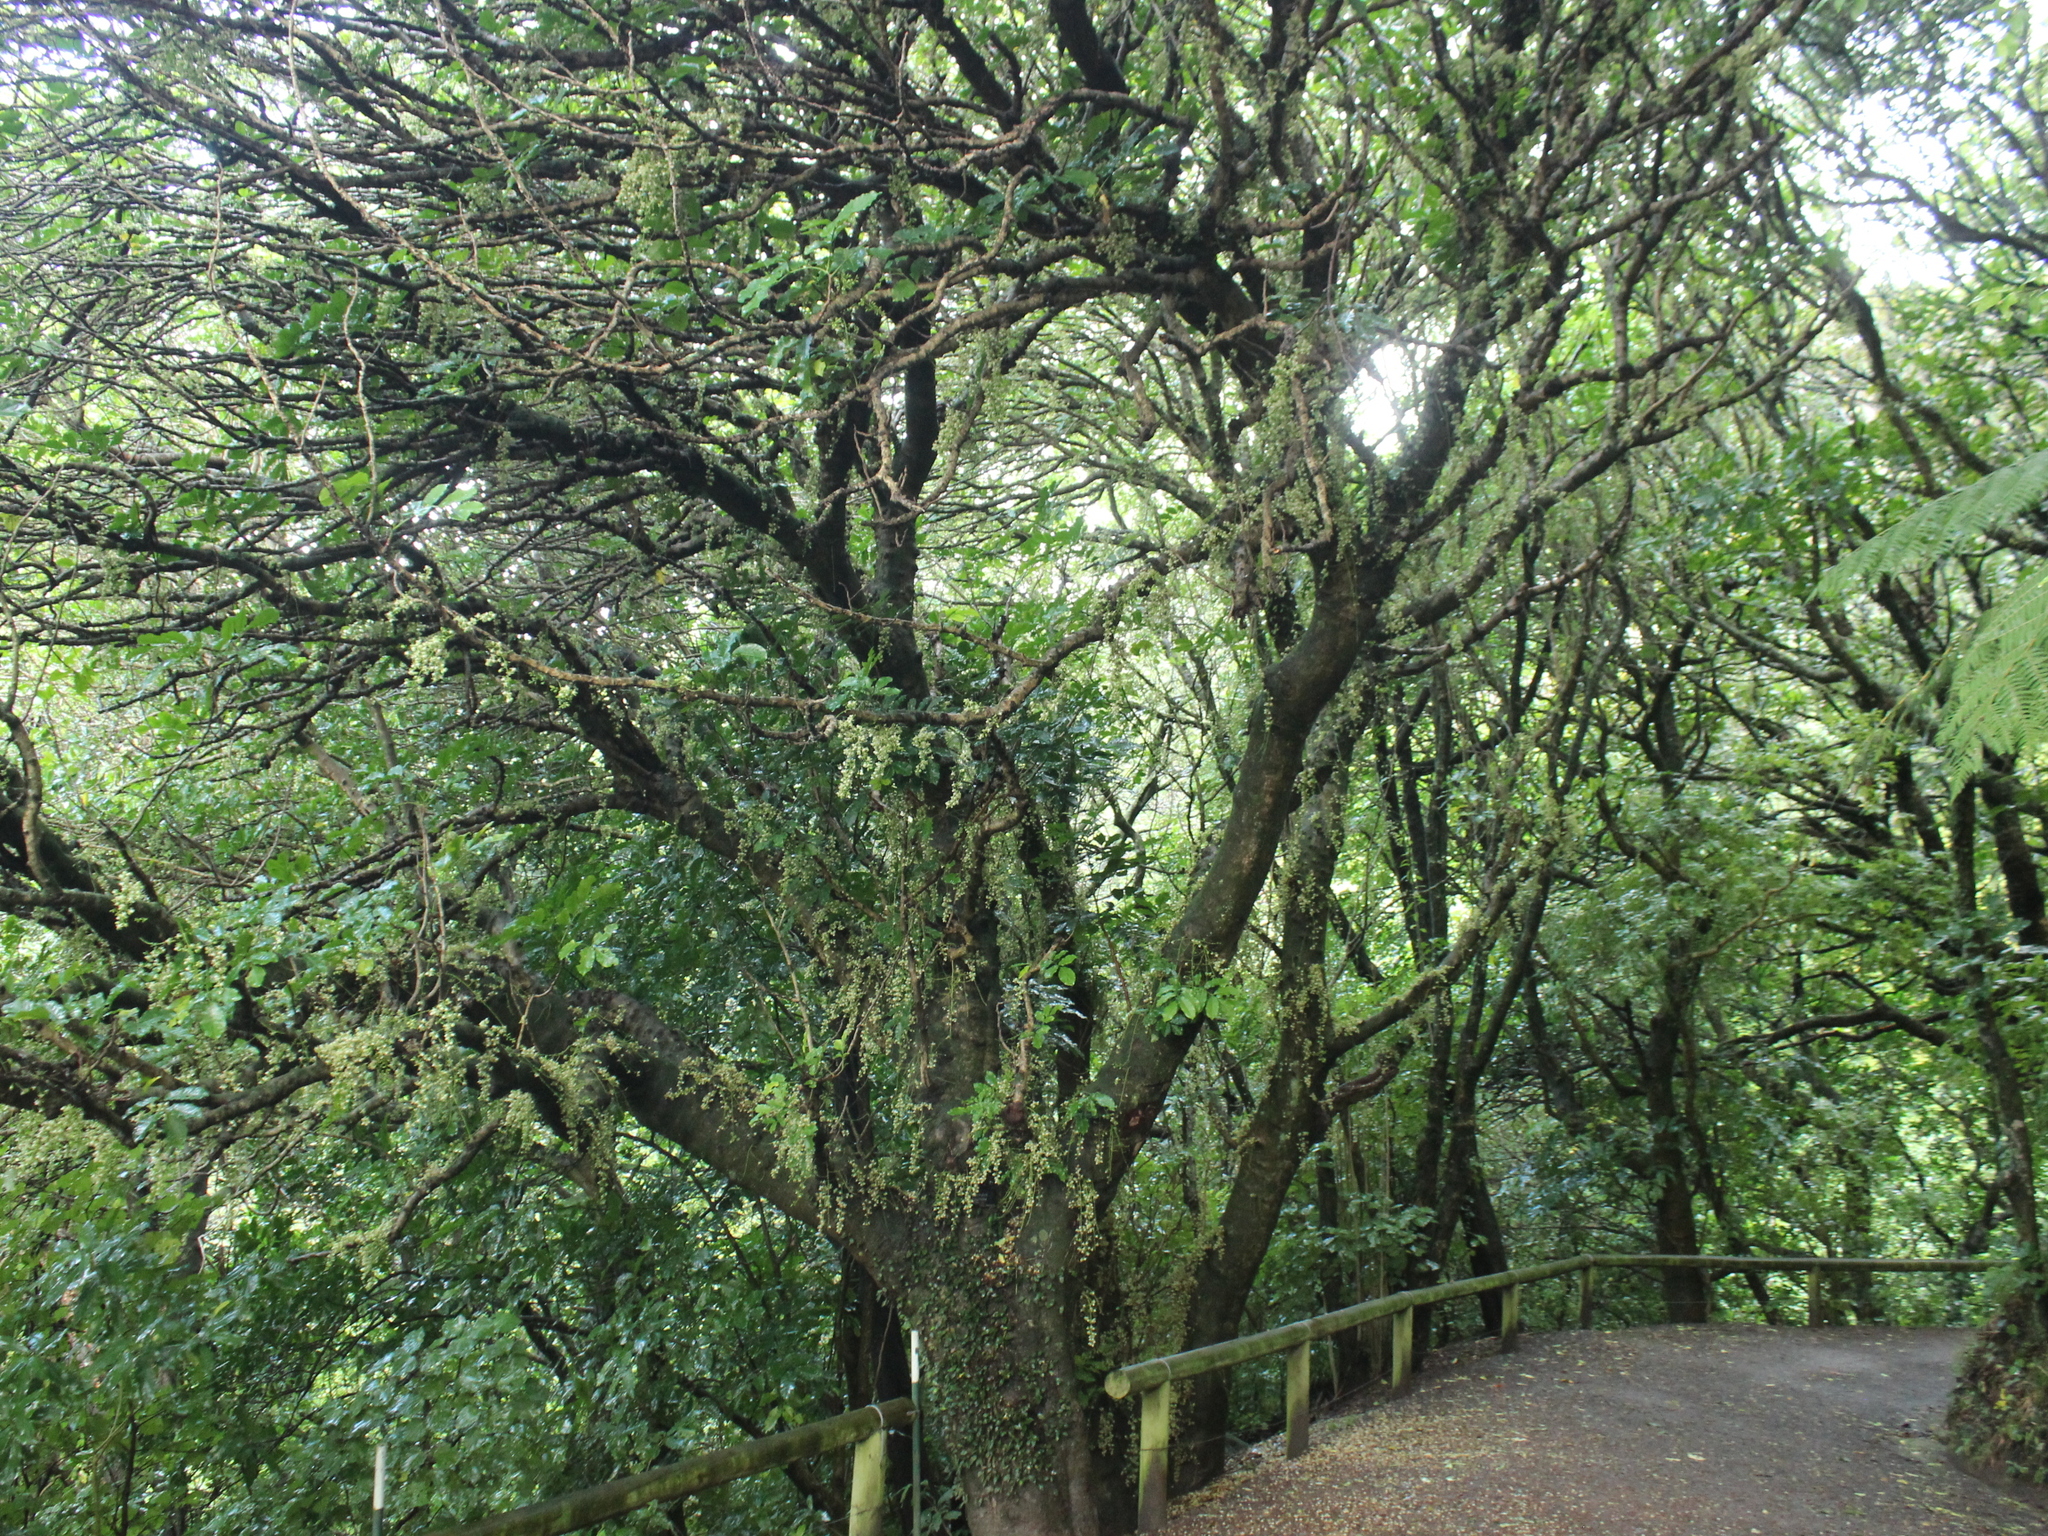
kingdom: Plantae
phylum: Tracheophyta
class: Magnoliopsida
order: Sapindales
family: Meliaceae
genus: Didymocheton
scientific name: Didymocheton spectabilis
